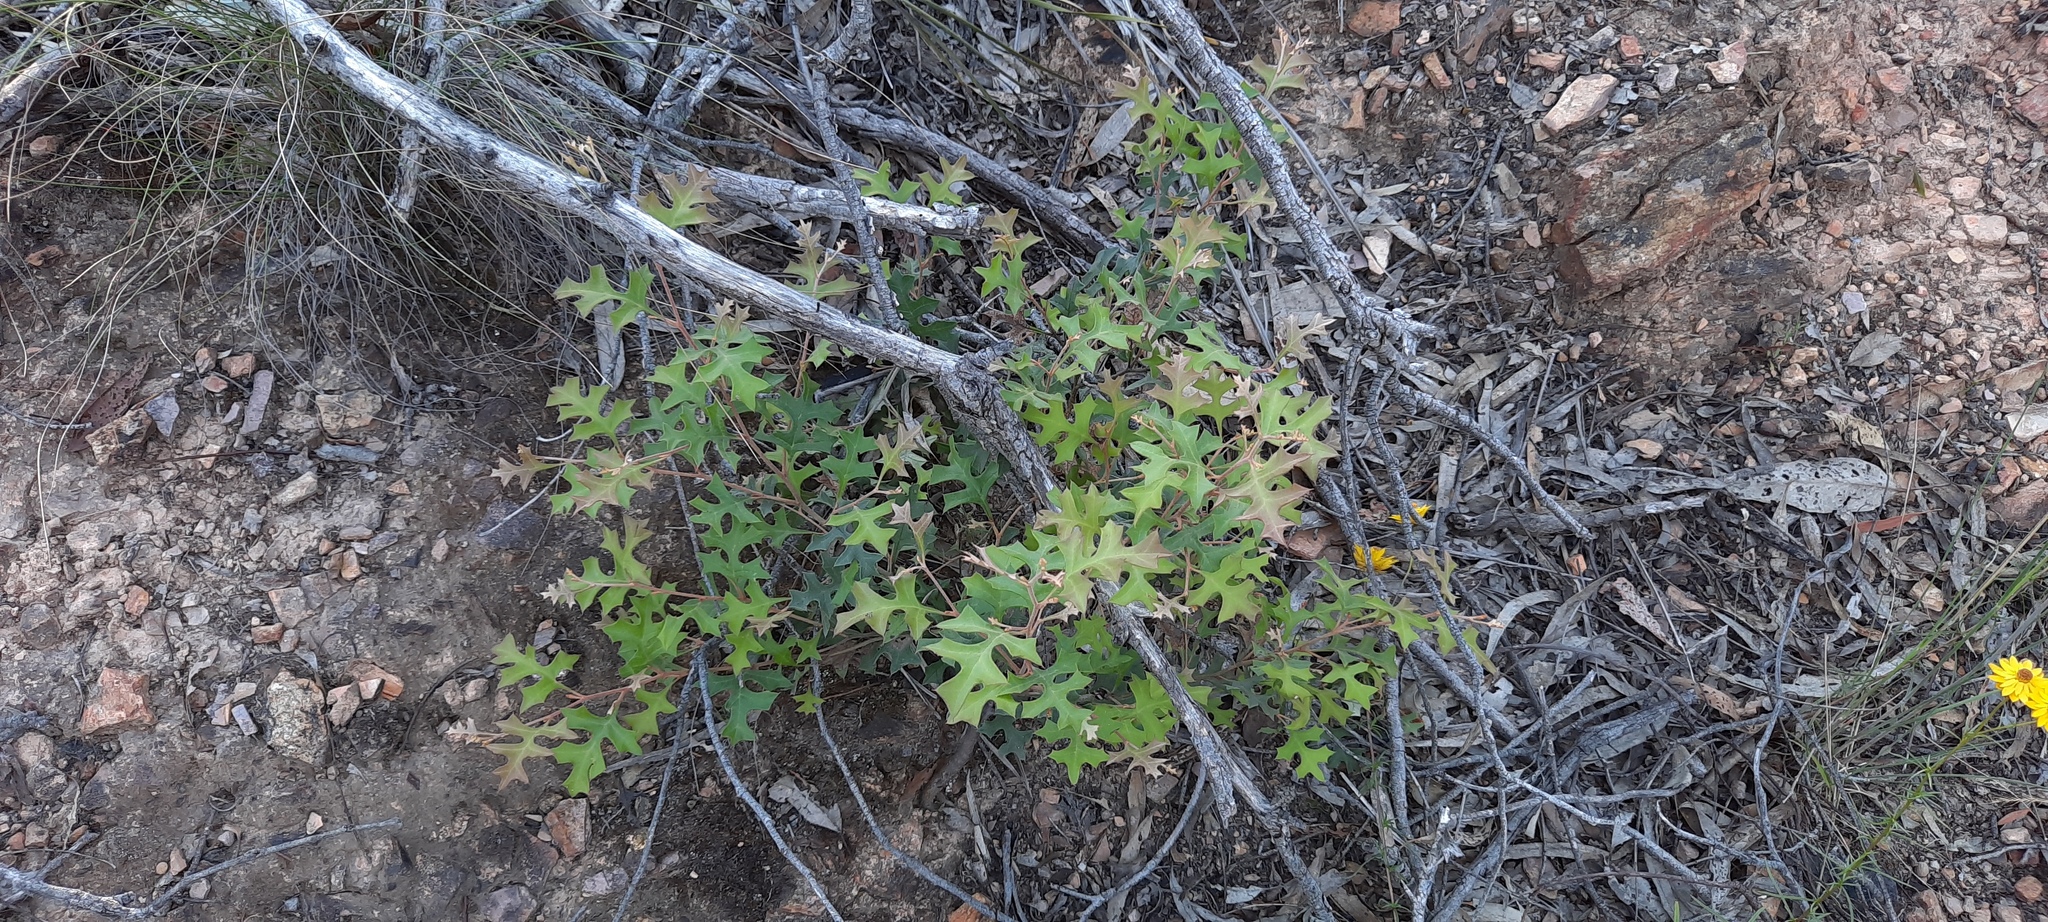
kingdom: Plantae
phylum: Tracheophyta
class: Magnoliopsida
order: Proteales
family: Proteaceae
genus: Grevillea
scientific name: Grevillea dryophylla
